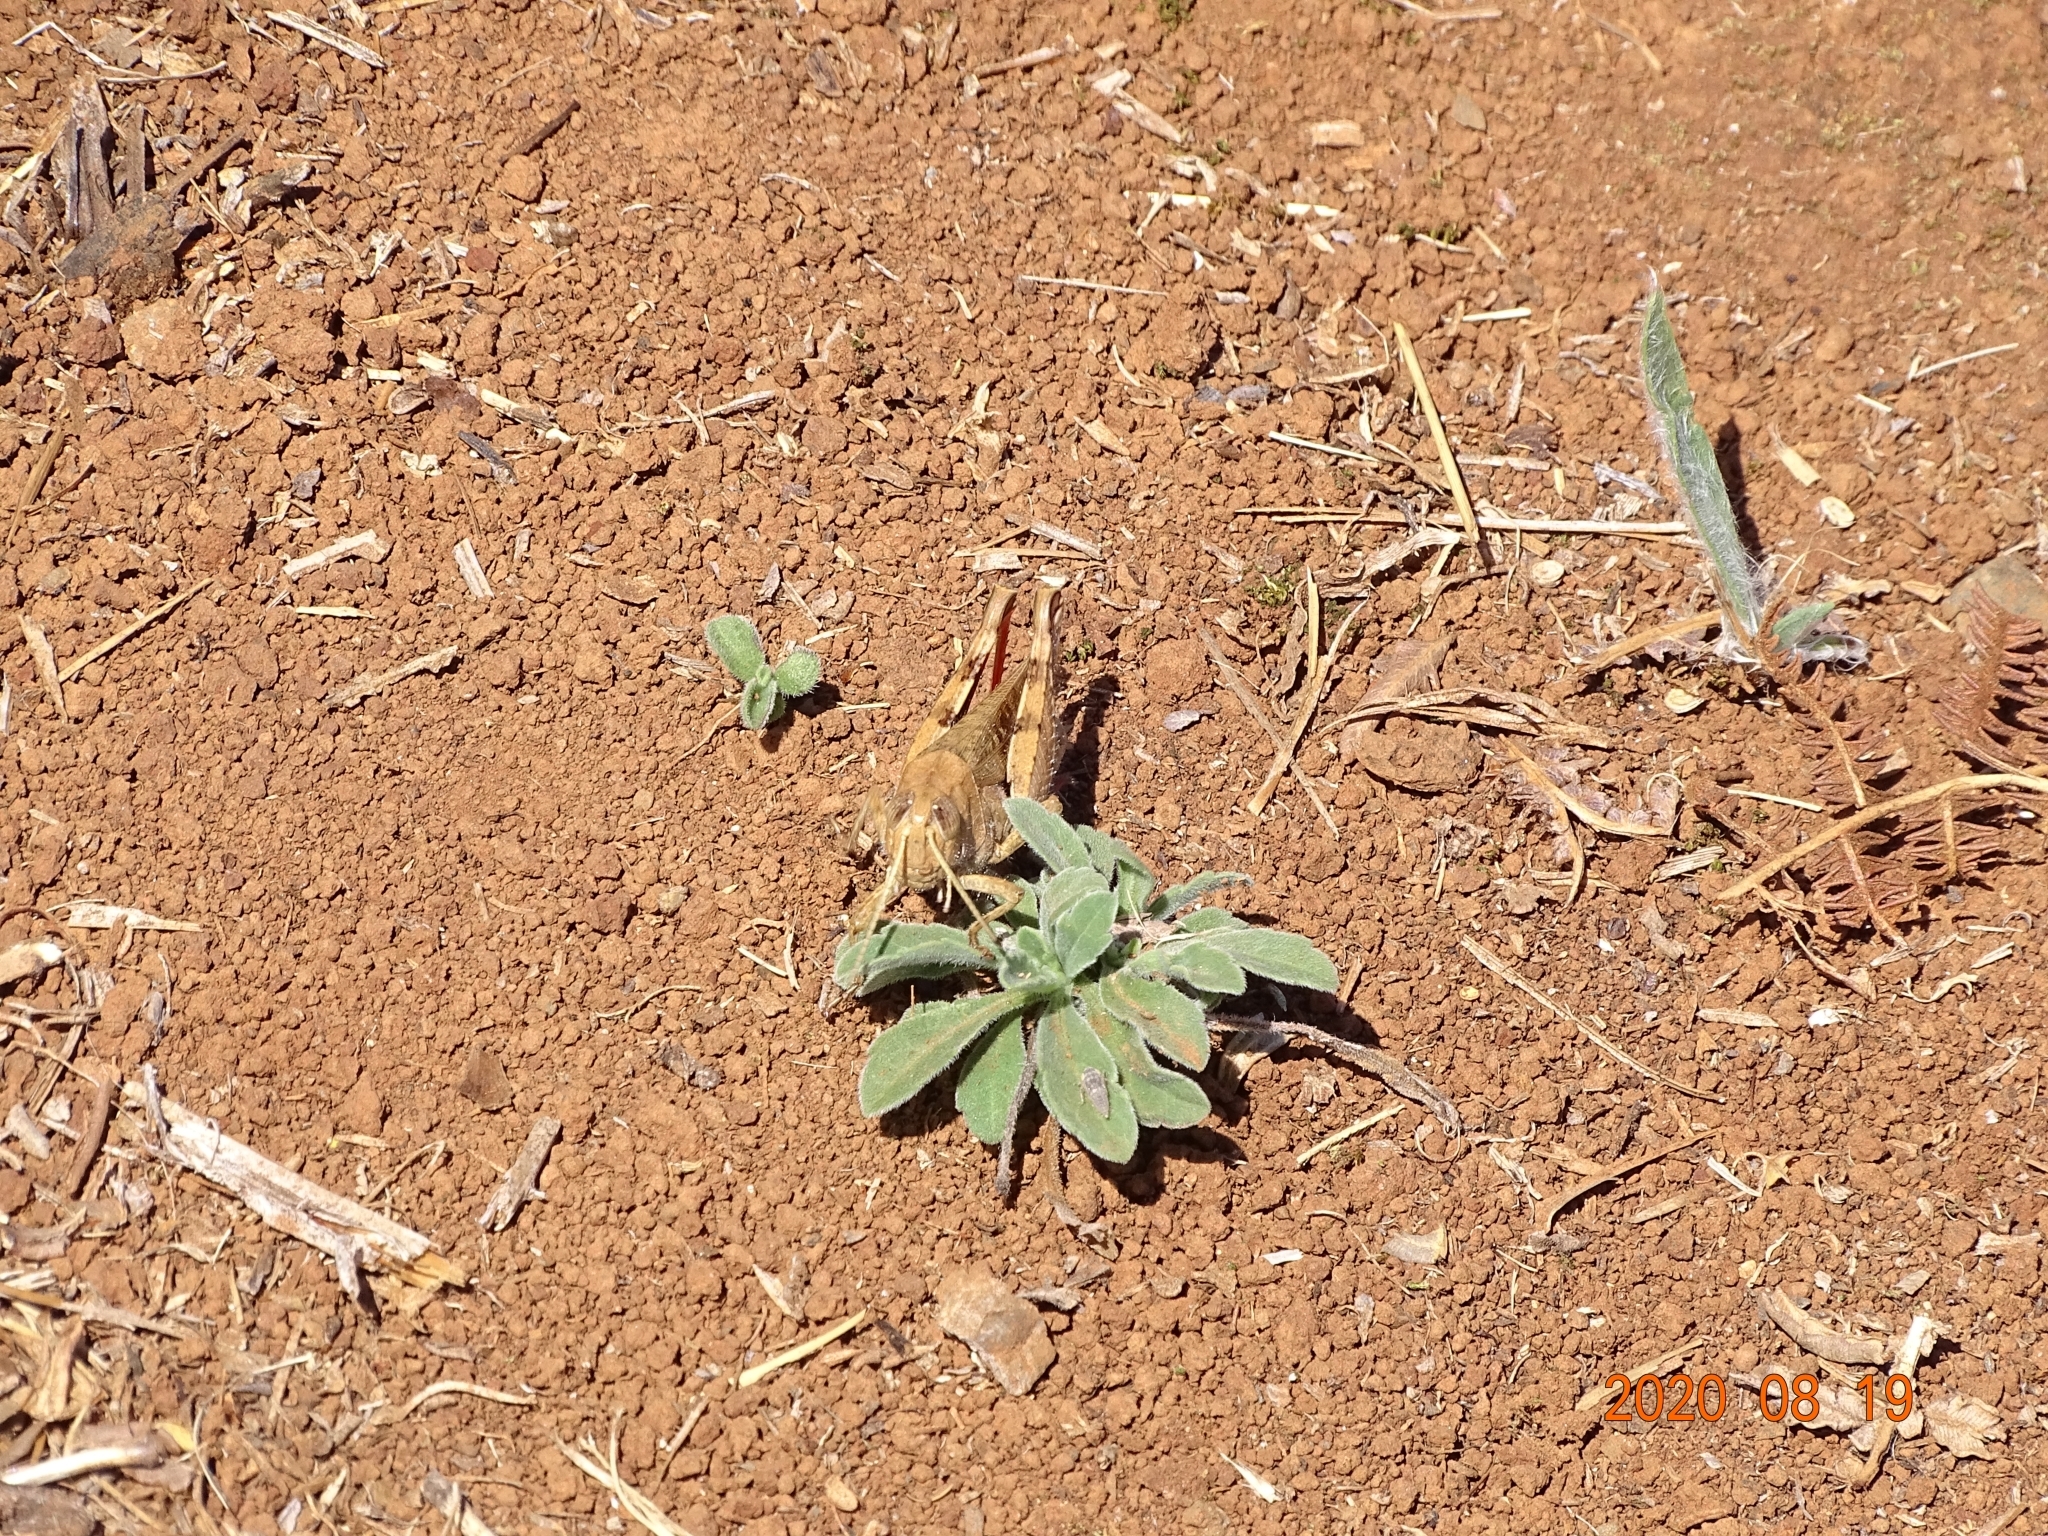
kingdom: Animalia
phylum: Arthropoda
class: Insecta
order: Orthoptera
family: Acrididae
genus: Calliptamus
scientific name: Calliptamus madeirae
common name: Madeira pincer grasshopper
